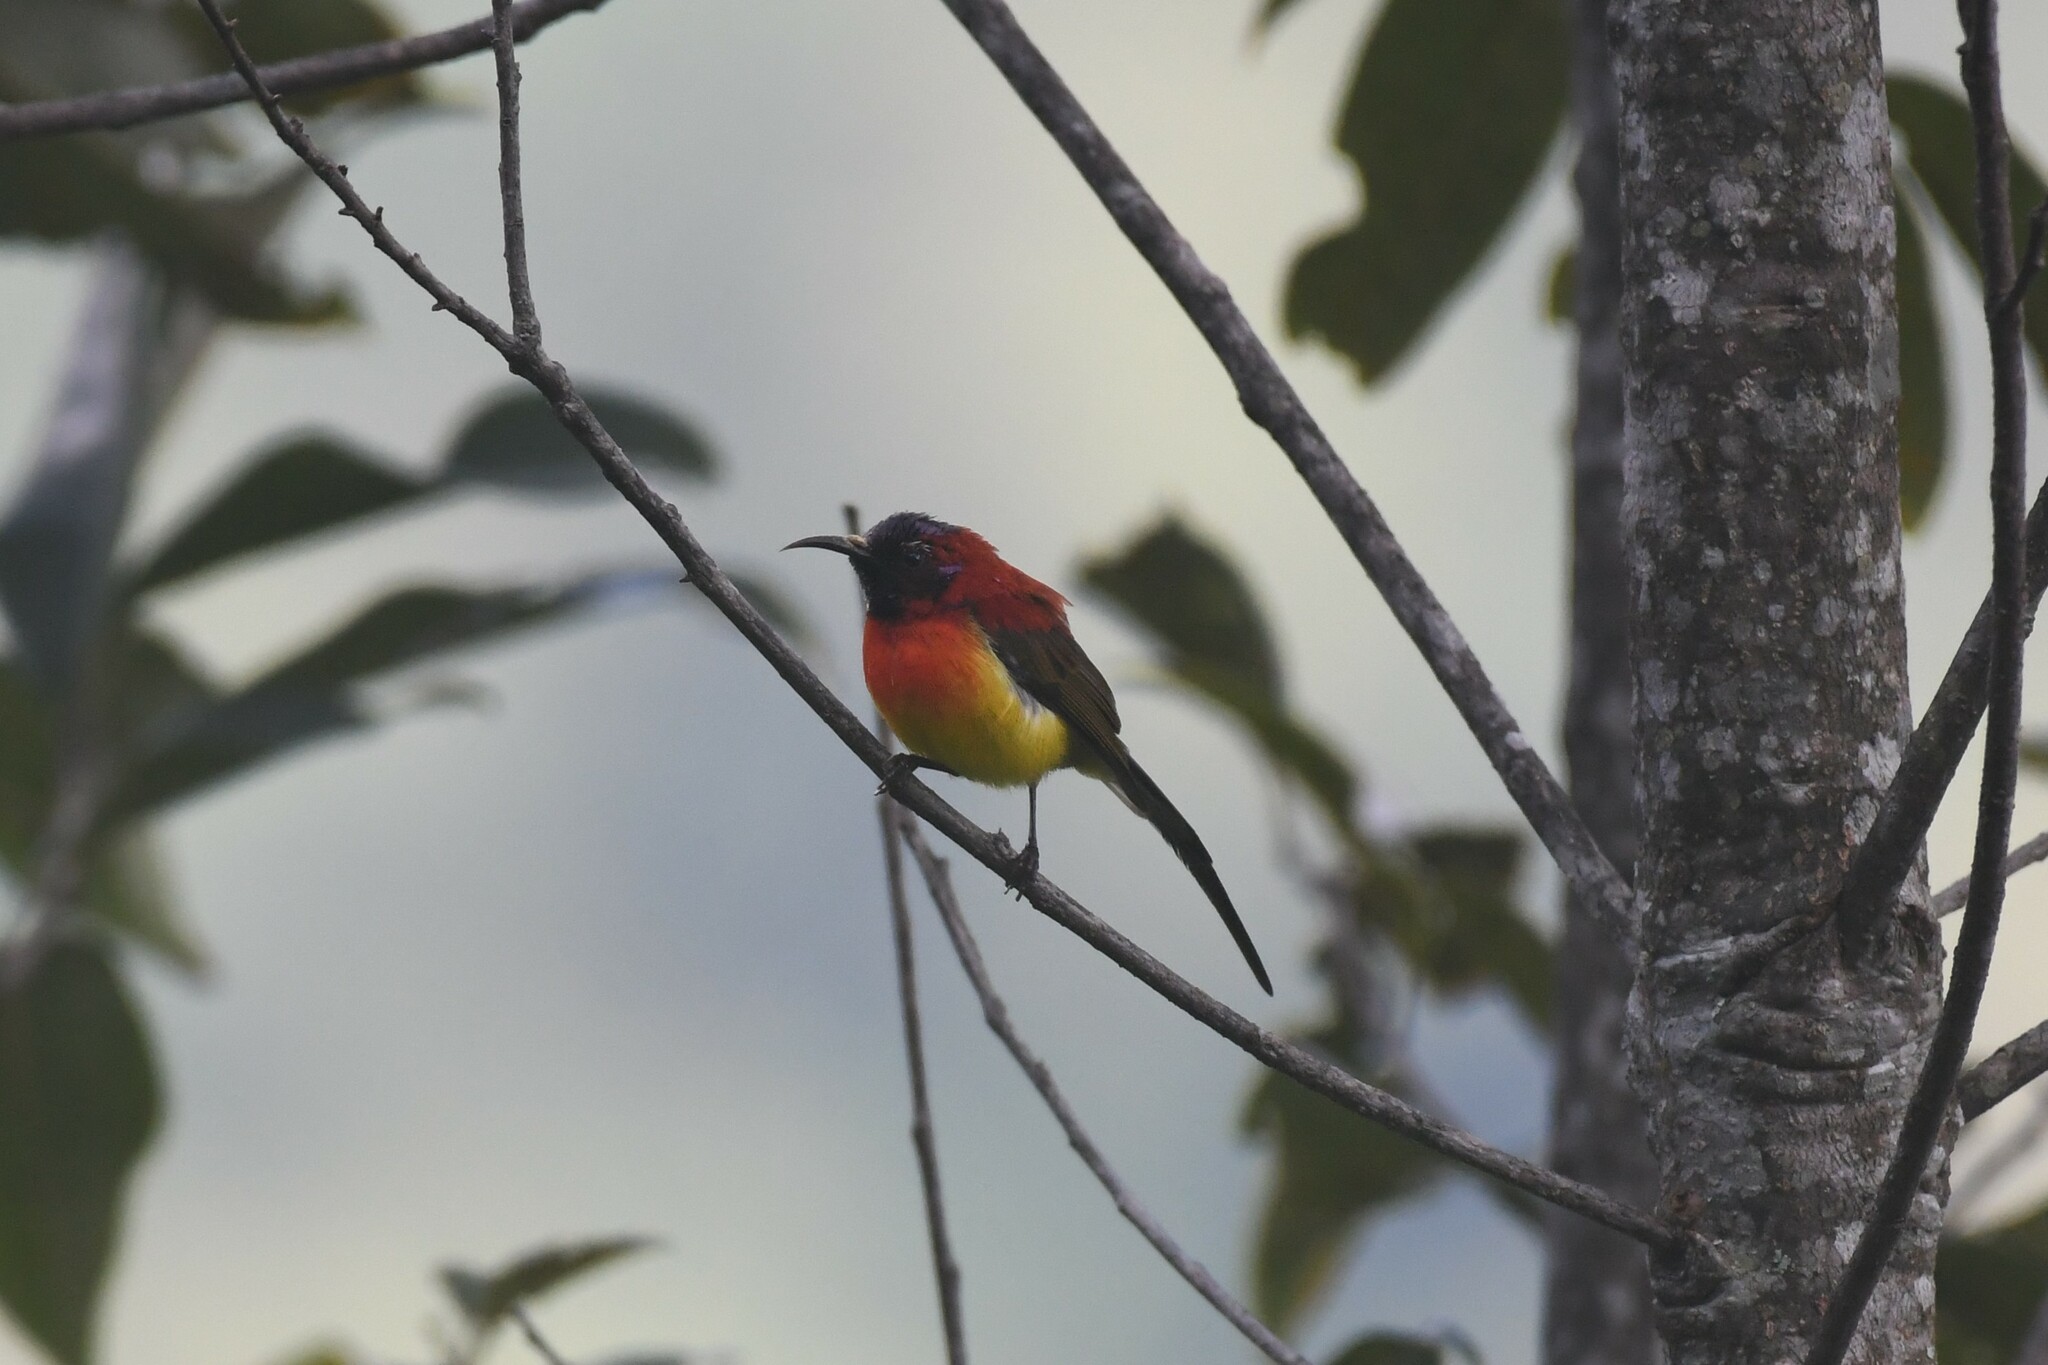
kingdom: Animalia
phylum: Chordata
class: Aves
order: Passeriformes
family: Nectariniidae
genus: Aethopyga
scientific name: Aethopyga gouldiae
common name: Mrs. gould's sunbird
